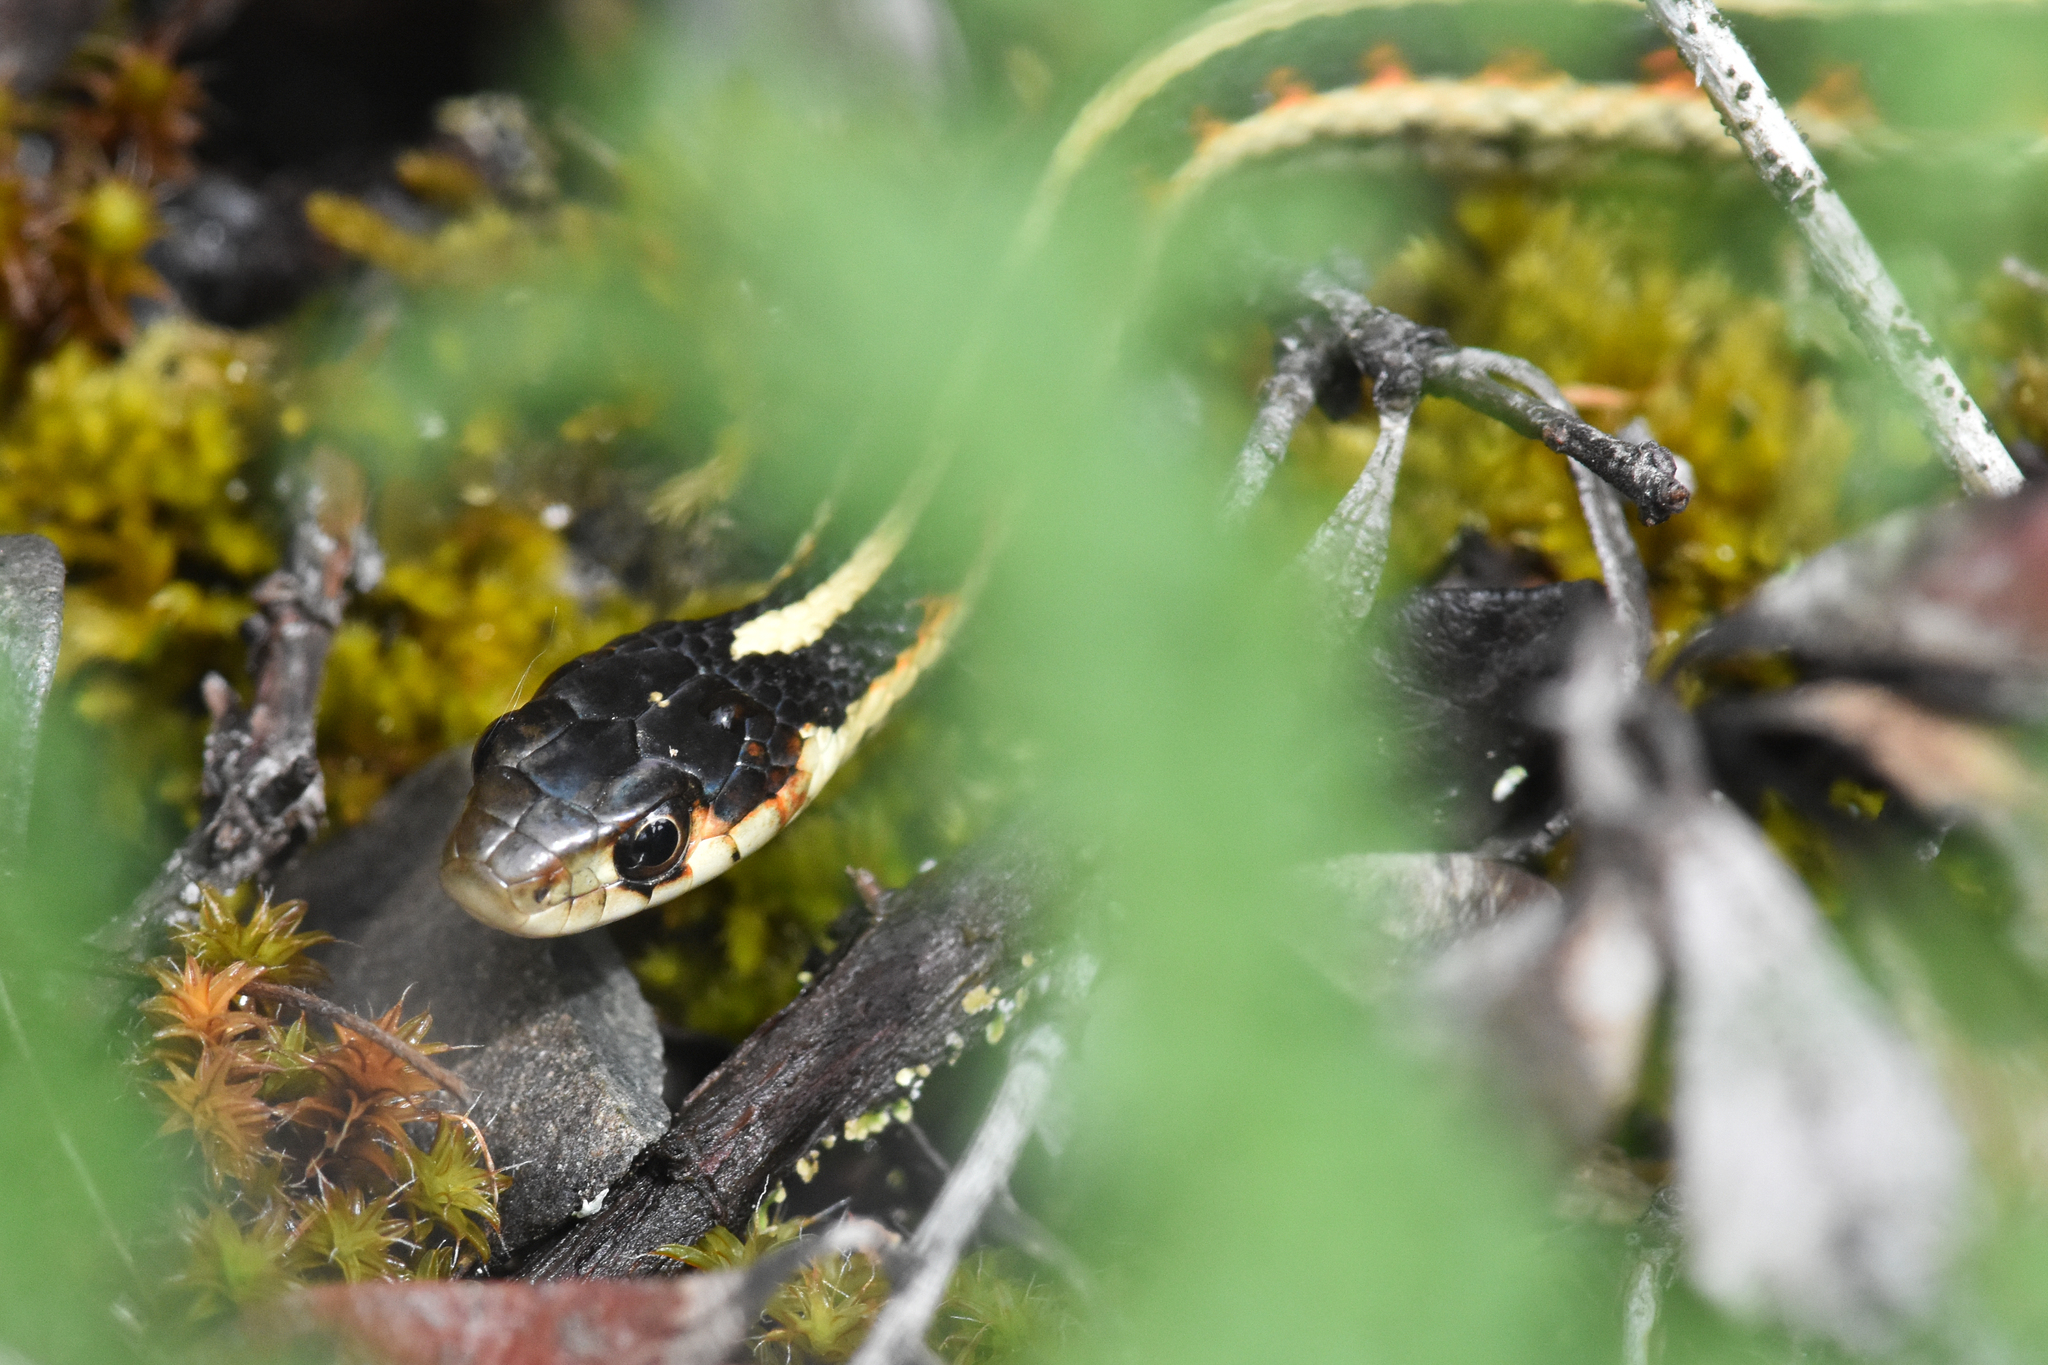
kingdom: Animalia
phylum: Chordata
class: Squamata
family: Colubridae
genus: Thamnophis
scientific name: Thamnophis sirtalis
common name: Common garter snake
